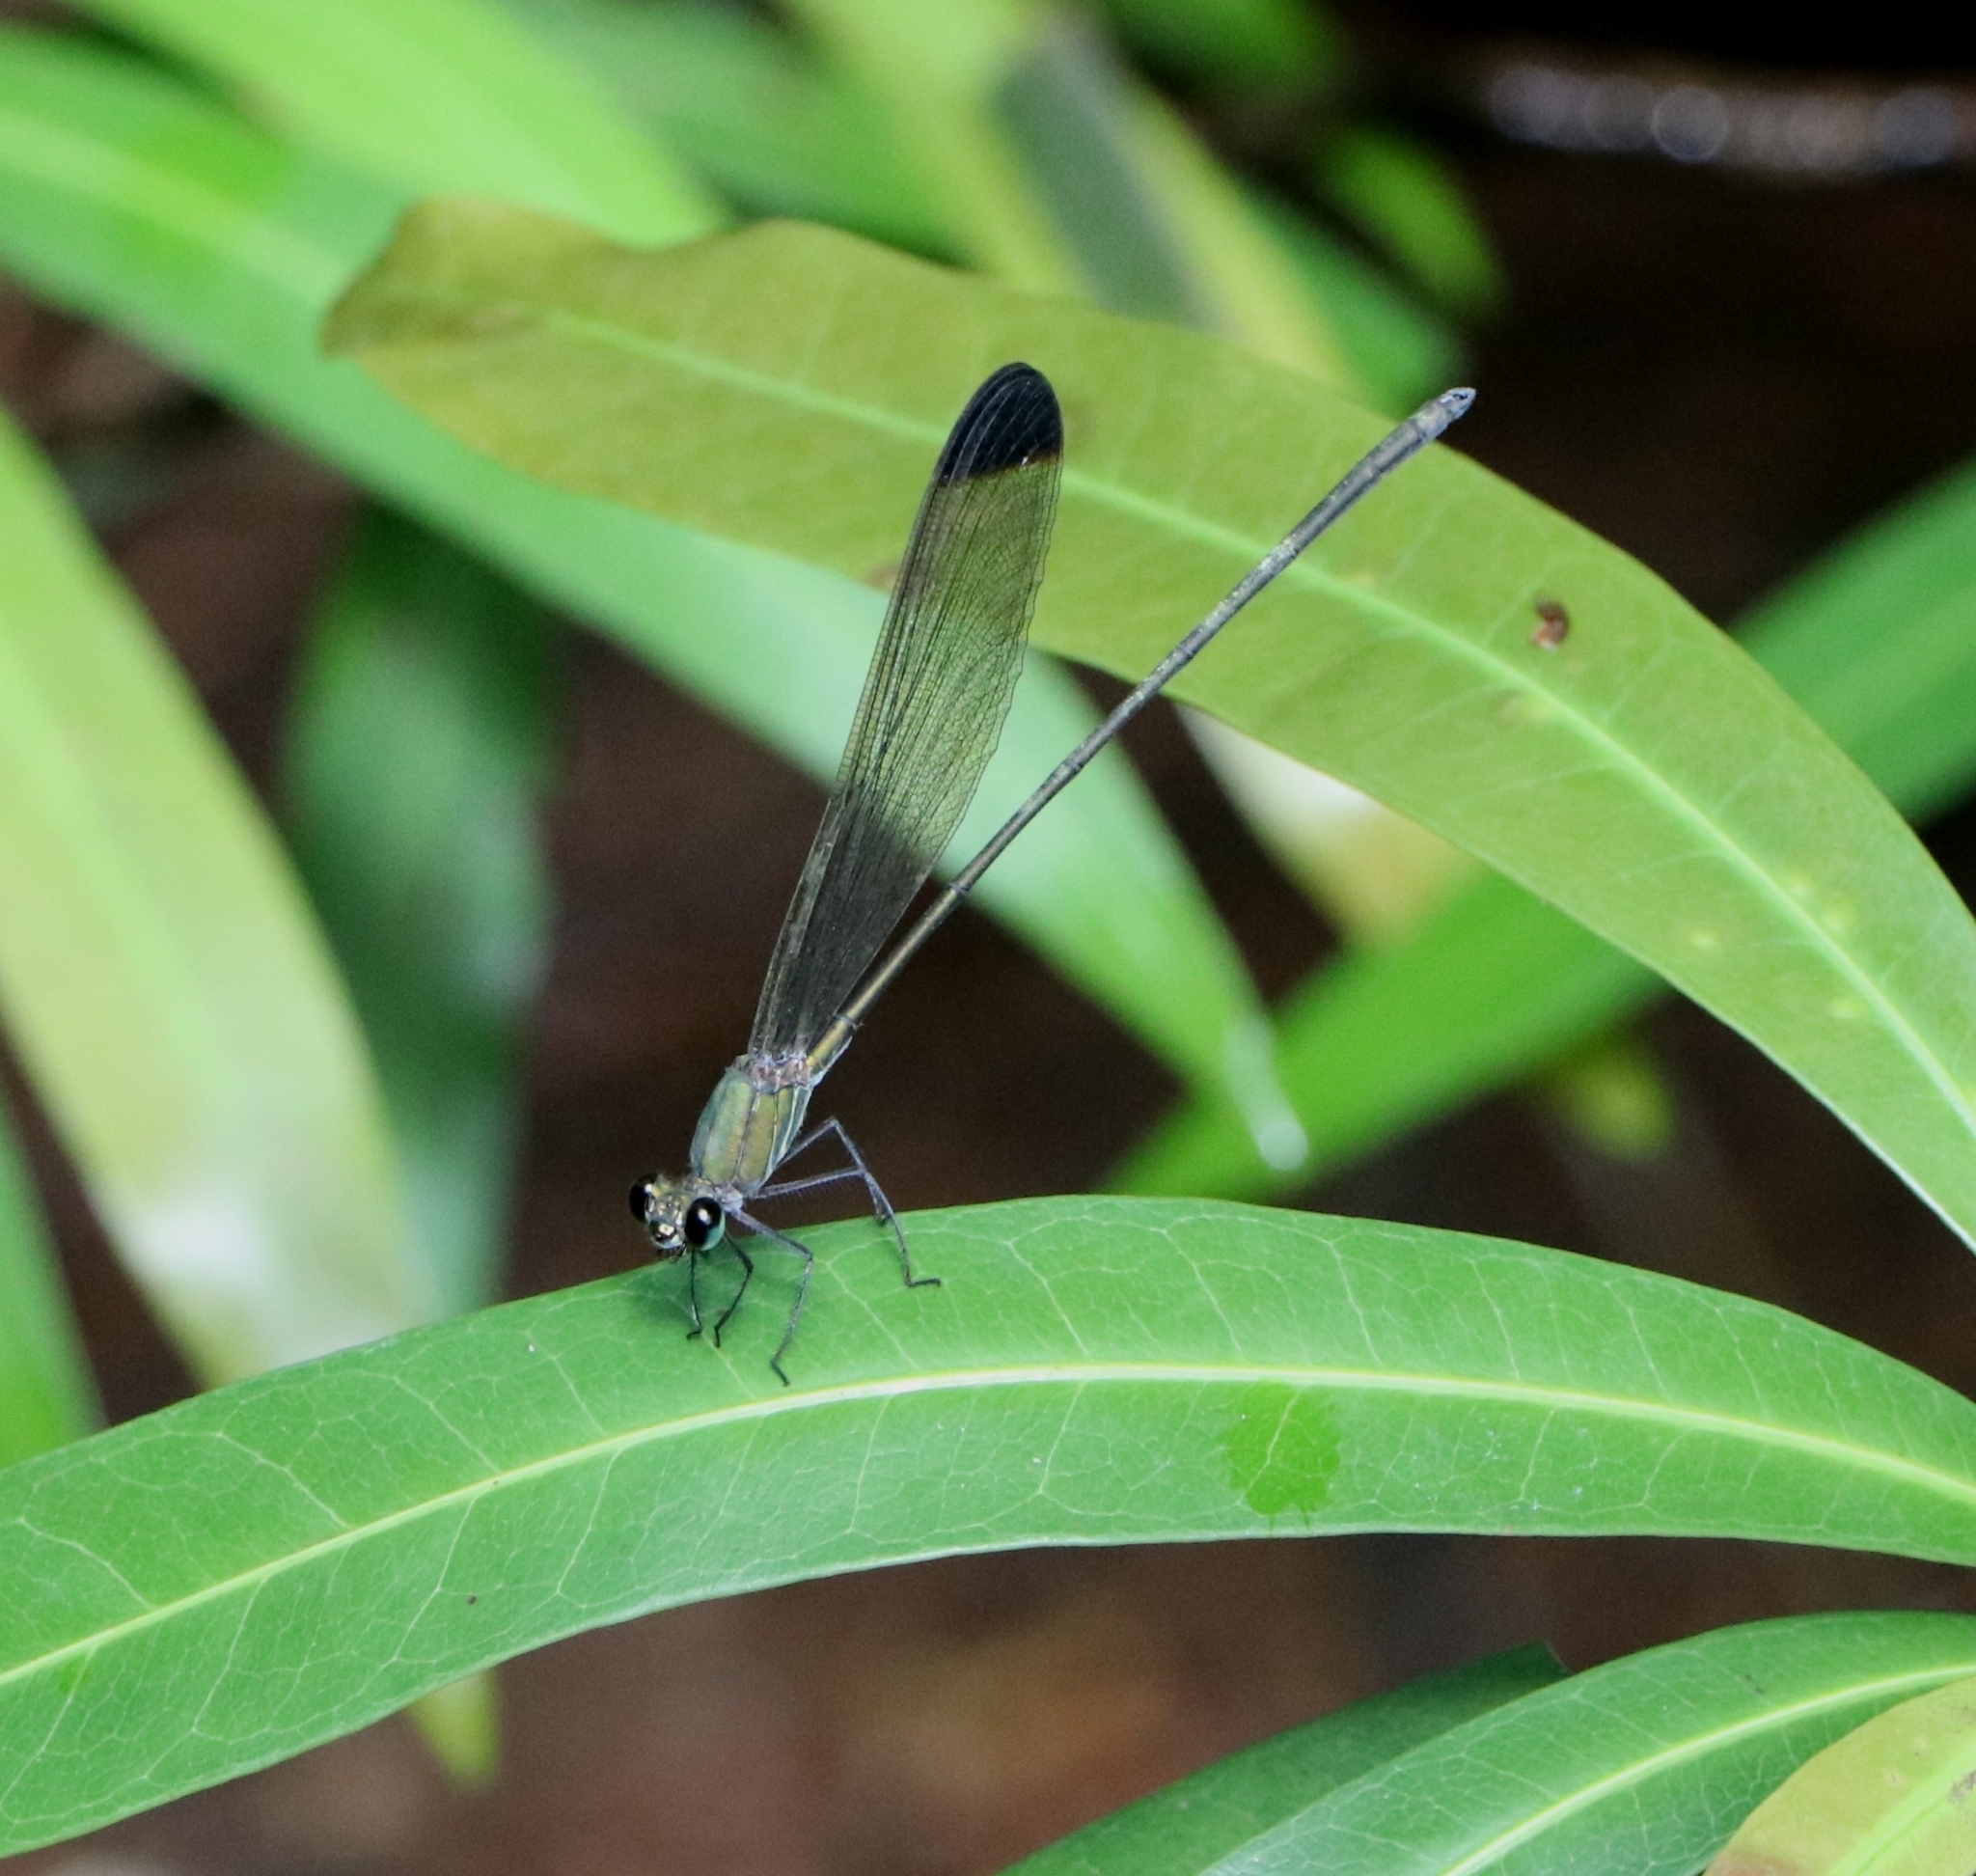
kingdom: Animalia
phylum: Arthropoda
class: Insecta
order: Odonata
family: Calopterygidae
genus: Vestalis
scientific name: Vestalis apicalis
